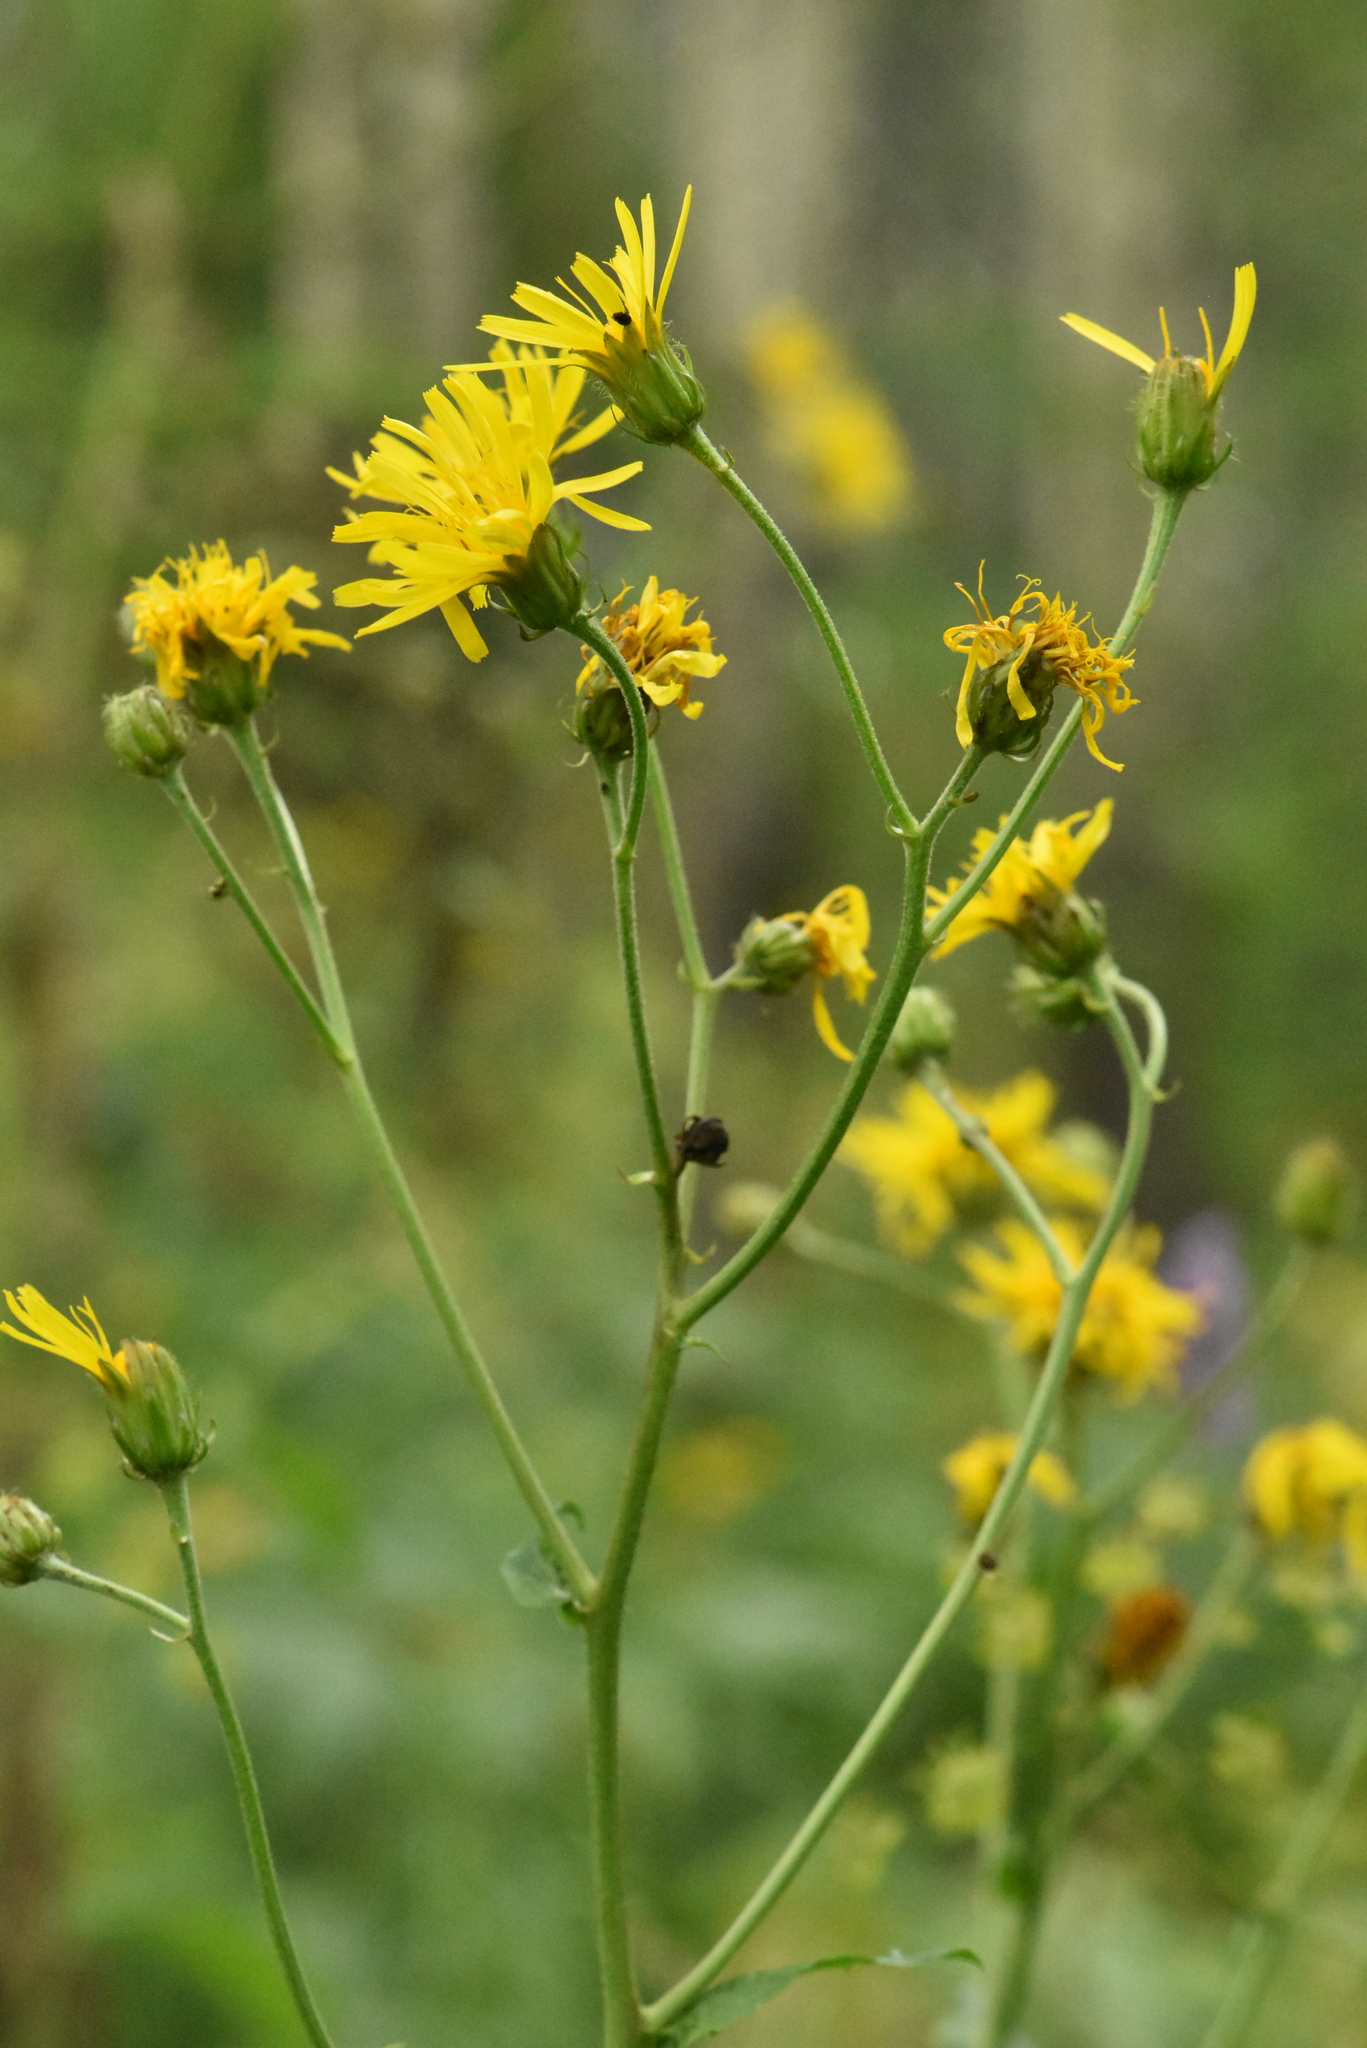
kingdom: Plantae
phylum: Tracheophyta
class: Magnoliopsida
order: Asterales
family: Asteraceae
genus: Crepis
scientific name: Crepis sibirica
